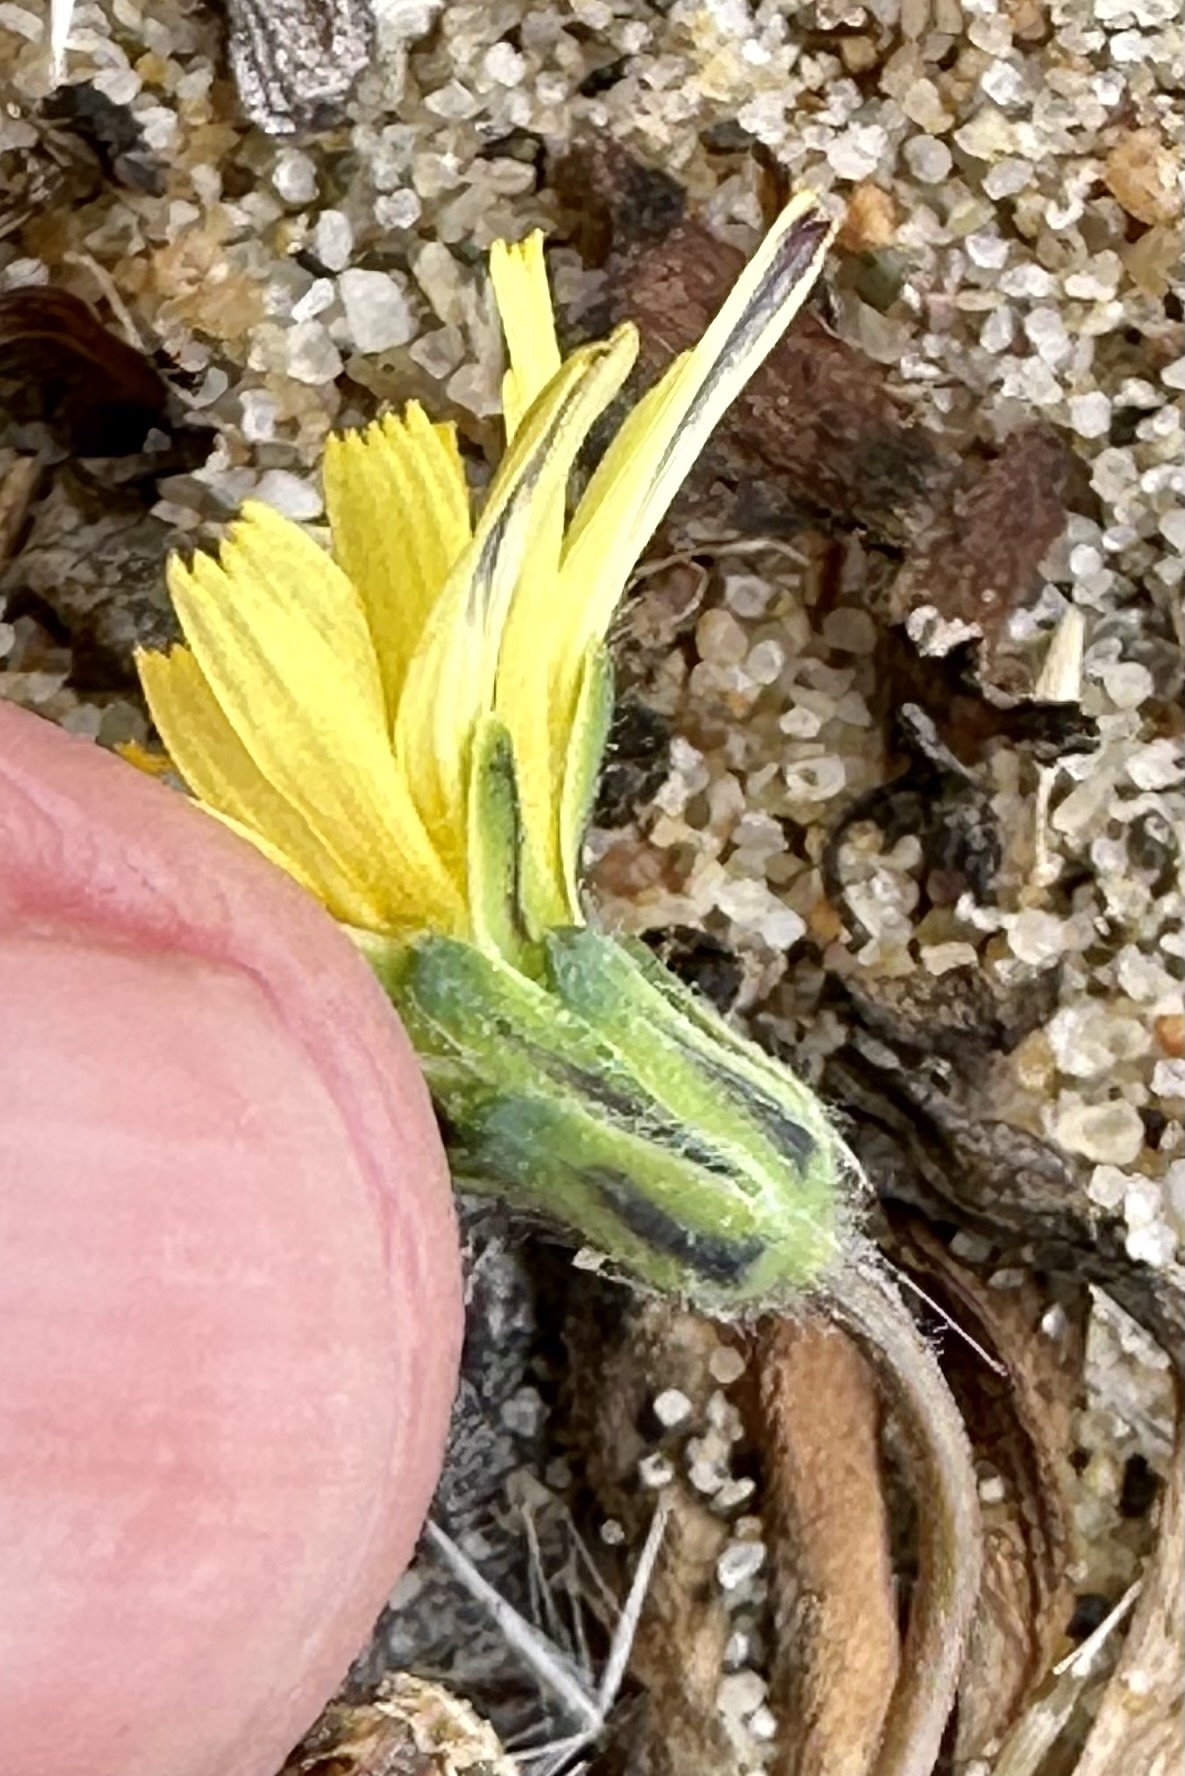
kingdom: Plantae
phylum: Tracheophyta
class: Magnoliopsida
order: Asterales
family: Asteraceae
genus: Agoseris
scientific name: Agoseris apargioides
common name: Point reyes agoseris
